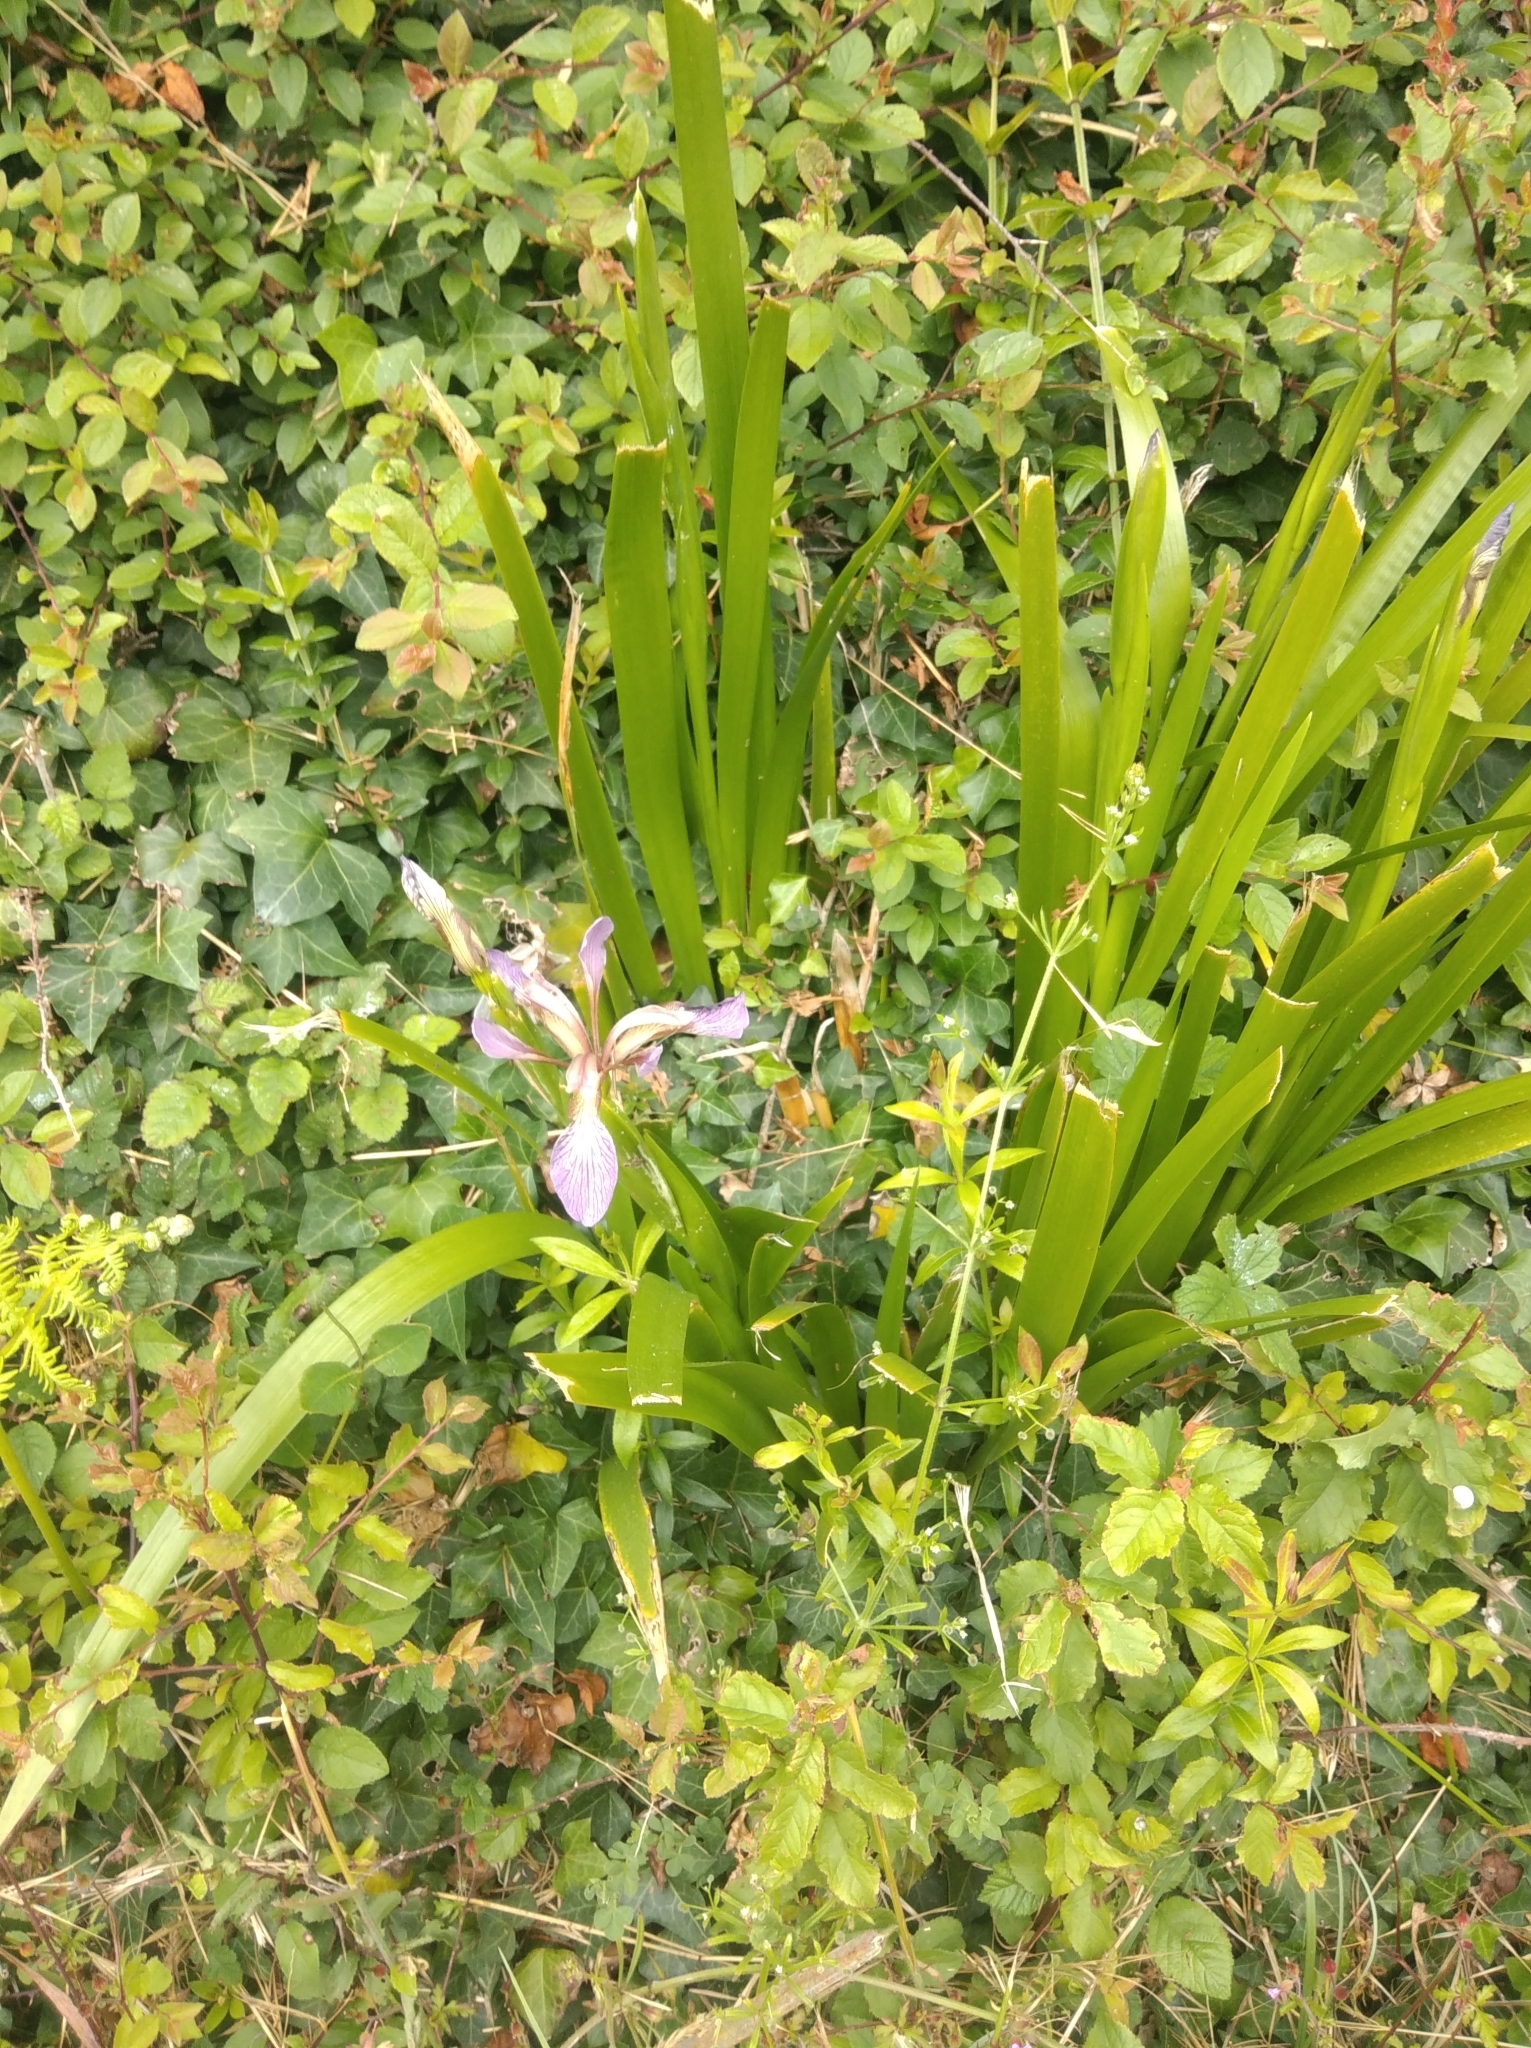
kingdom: Plantae
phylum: Tracheophyta
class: Liliopsida
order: Asparagales
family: Iridaceae
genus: Iris
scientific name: Iris foetidissima
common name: Stinking iris
